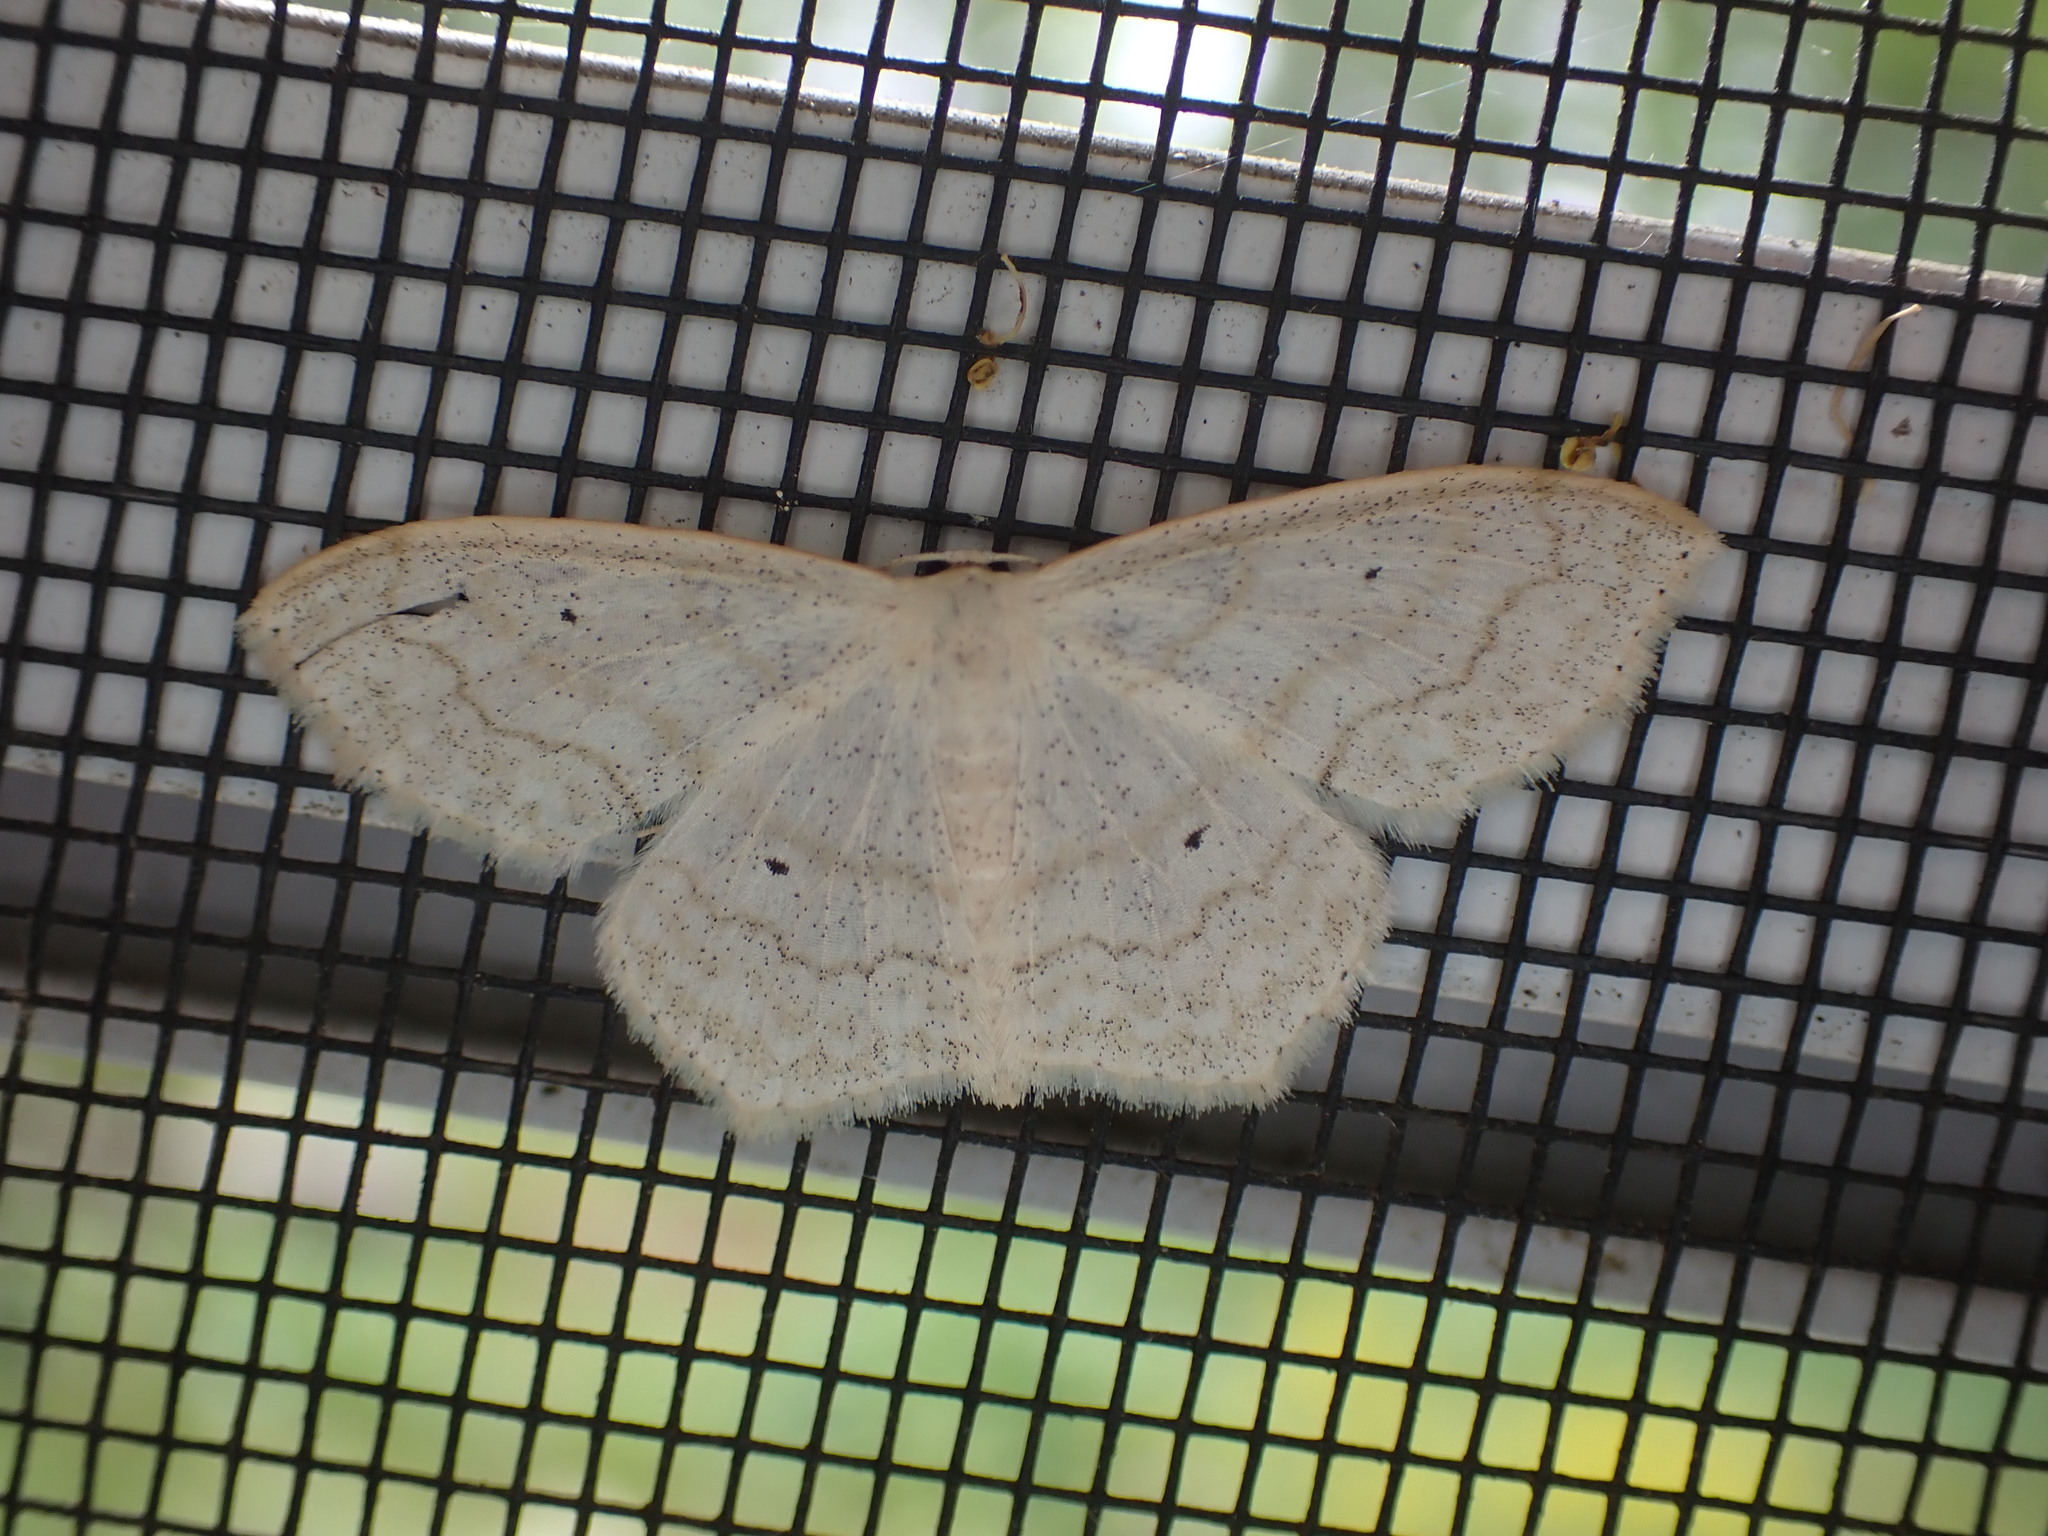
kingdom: Animalia
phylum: Arthropoda
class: Insecta
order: Lepidoptera
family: Geometridae
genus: Scopula
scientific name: Scopula limboundata
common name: Large lace border
